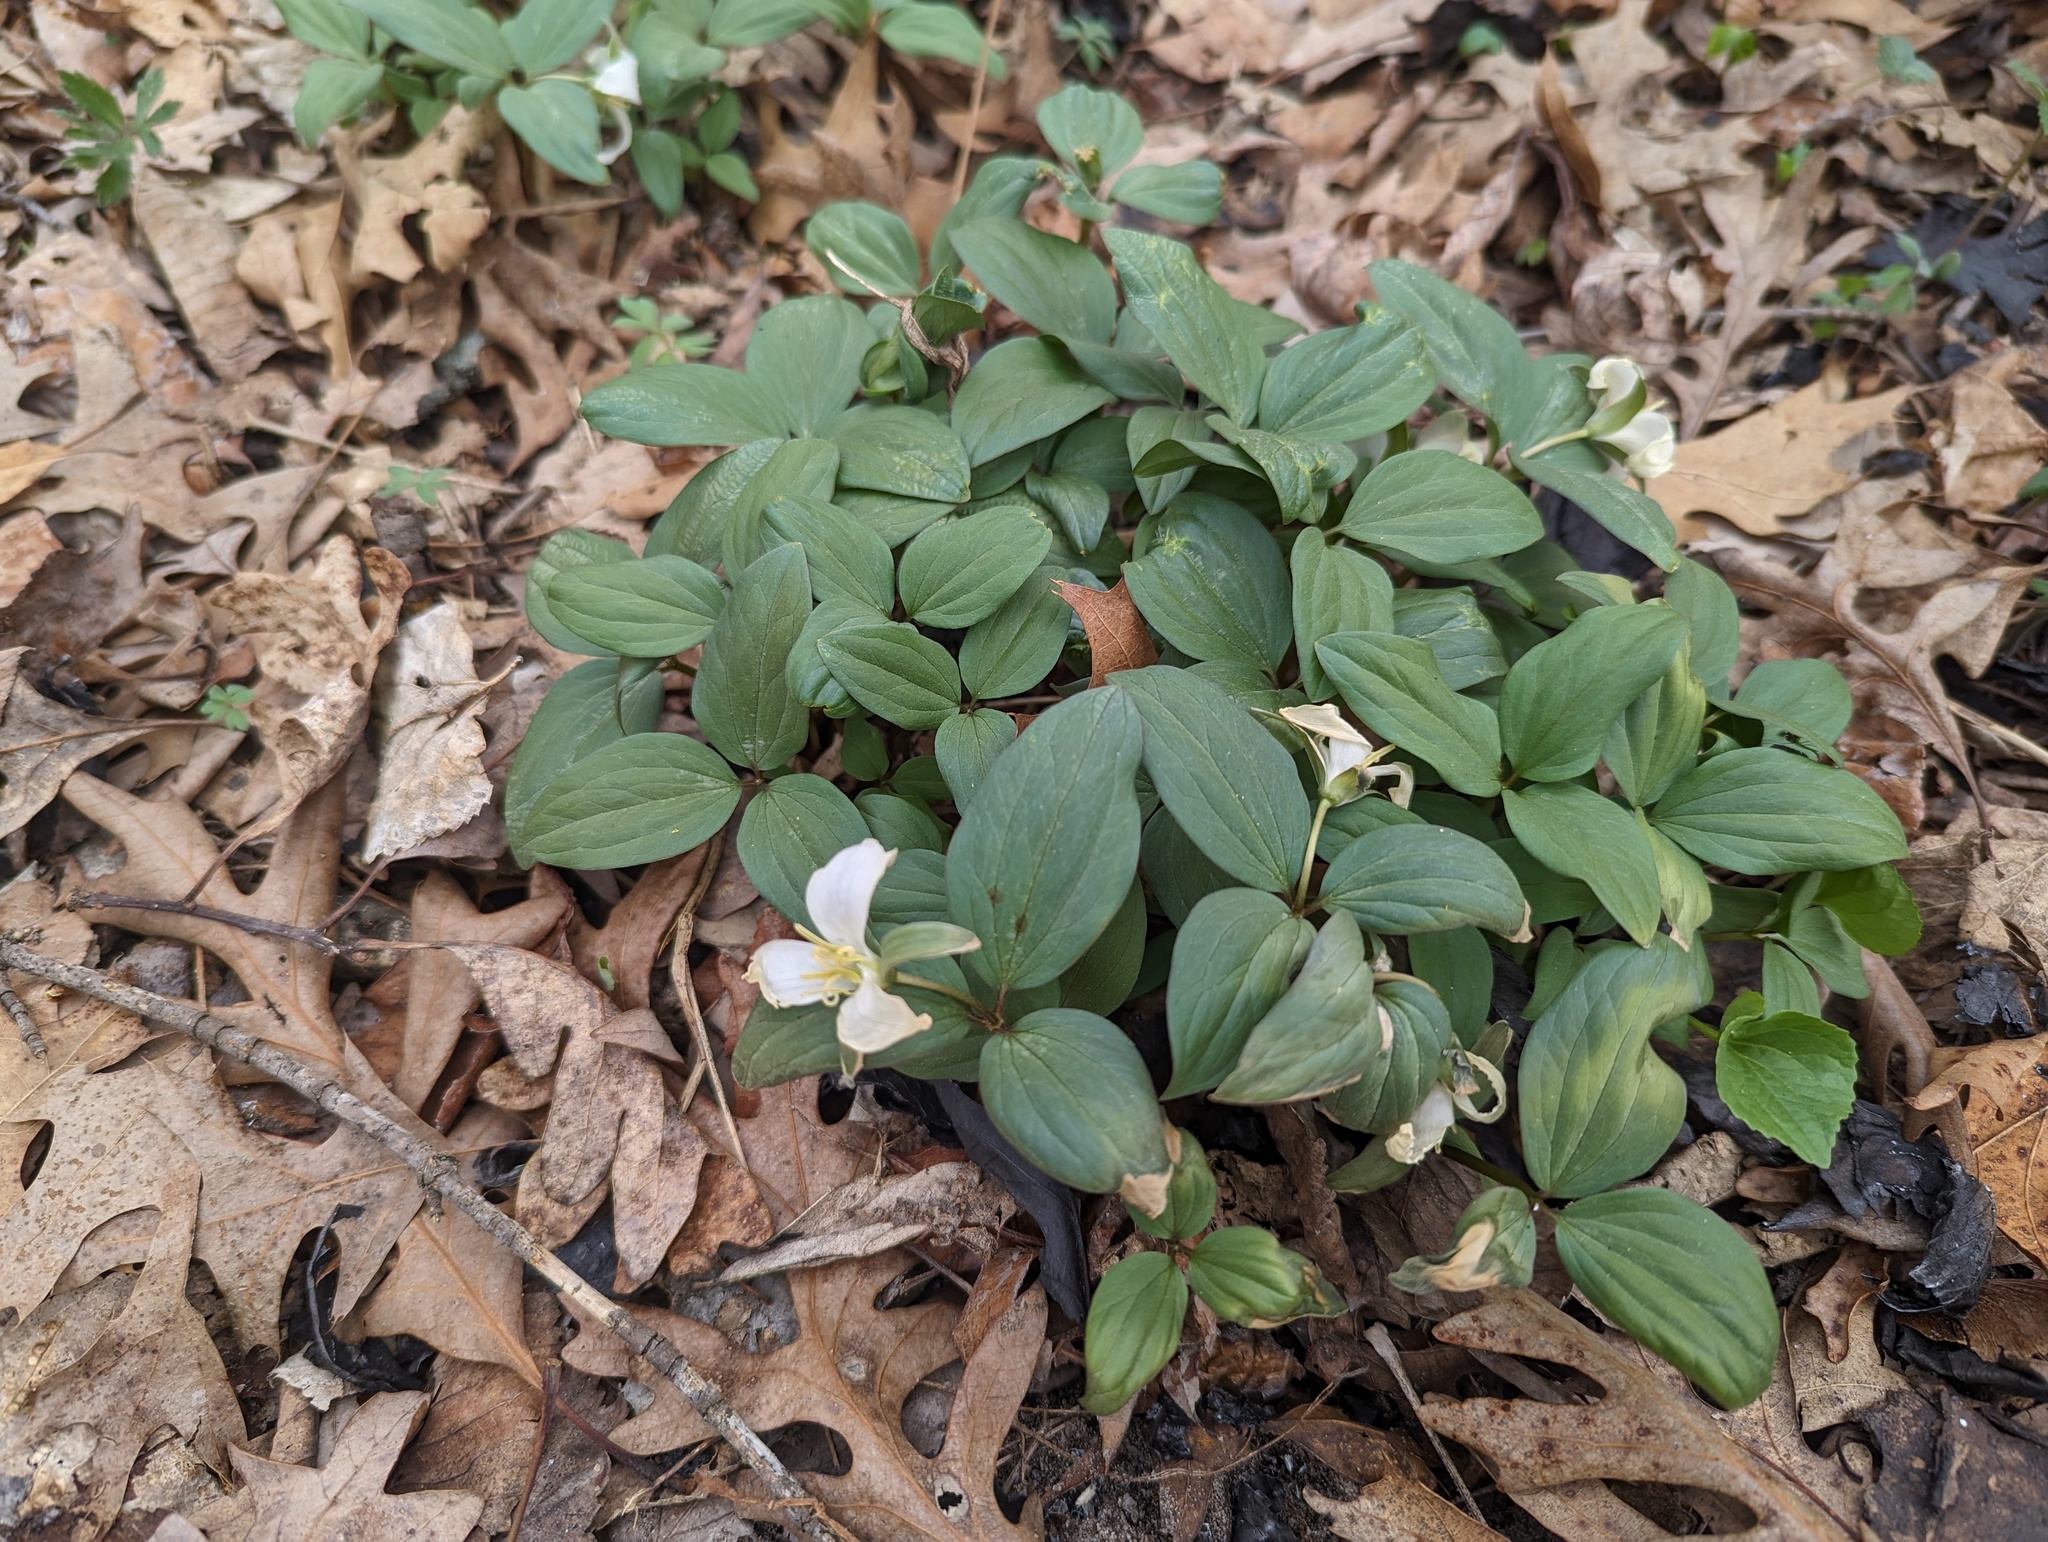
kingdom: Plantae
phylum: Tracheophyta
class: Liliopsida
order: Liliales
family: Melanthiaceae
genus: Trillium
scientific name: Trillium nivale
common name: Dwarf white trillium
